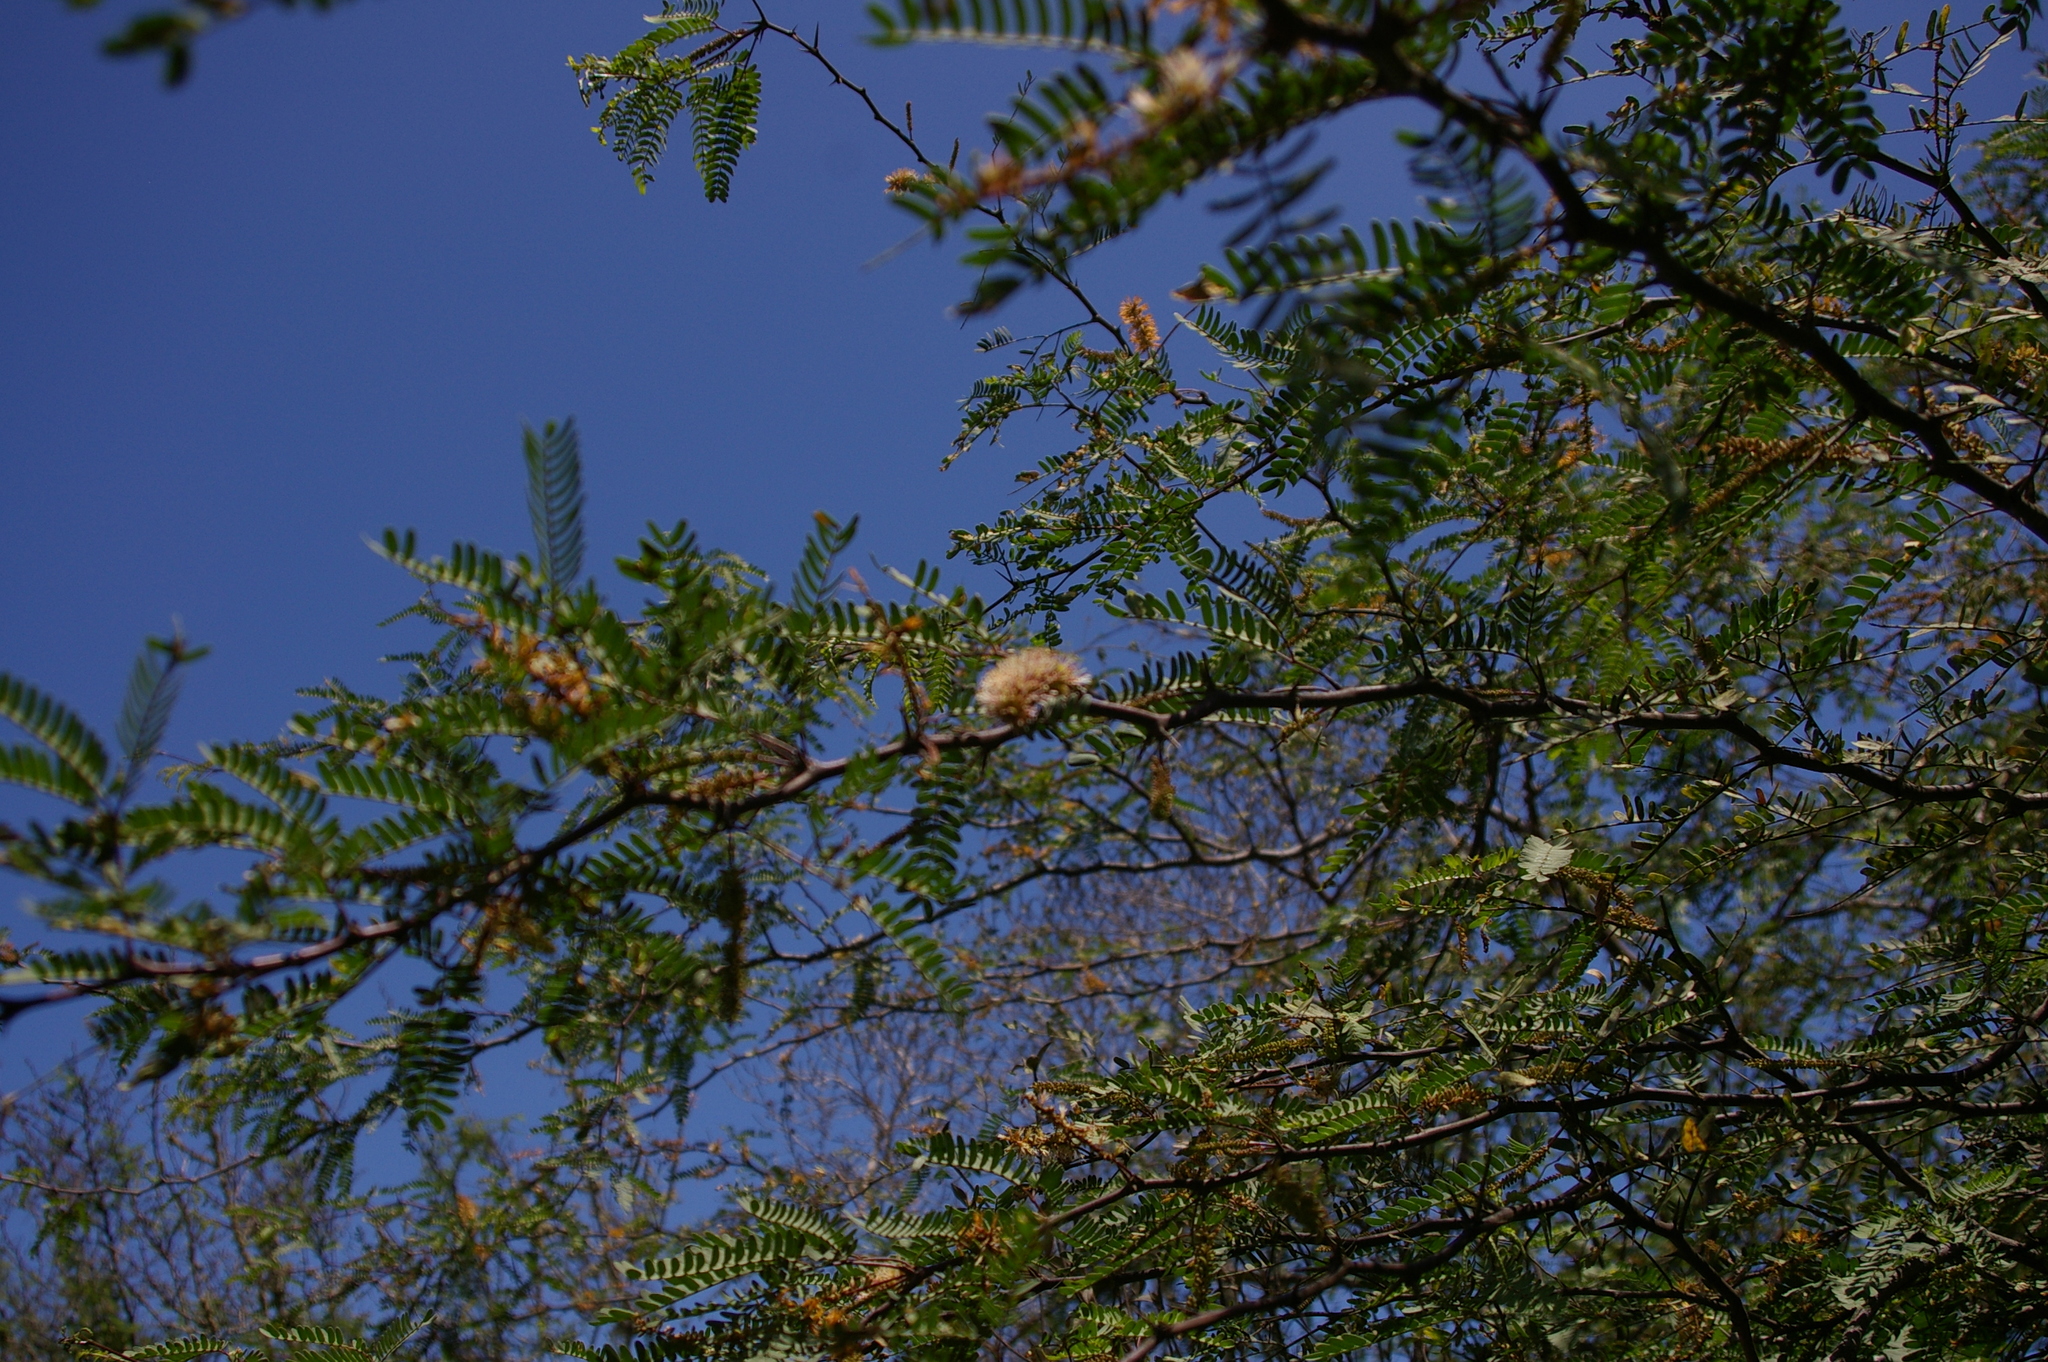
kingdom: Plantae
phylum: Tracheophyta
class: Magnoliopsida
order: Fabales
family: Fabaceae
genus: Prosopis
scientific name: Prosopis juliflora
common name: Mesquite
